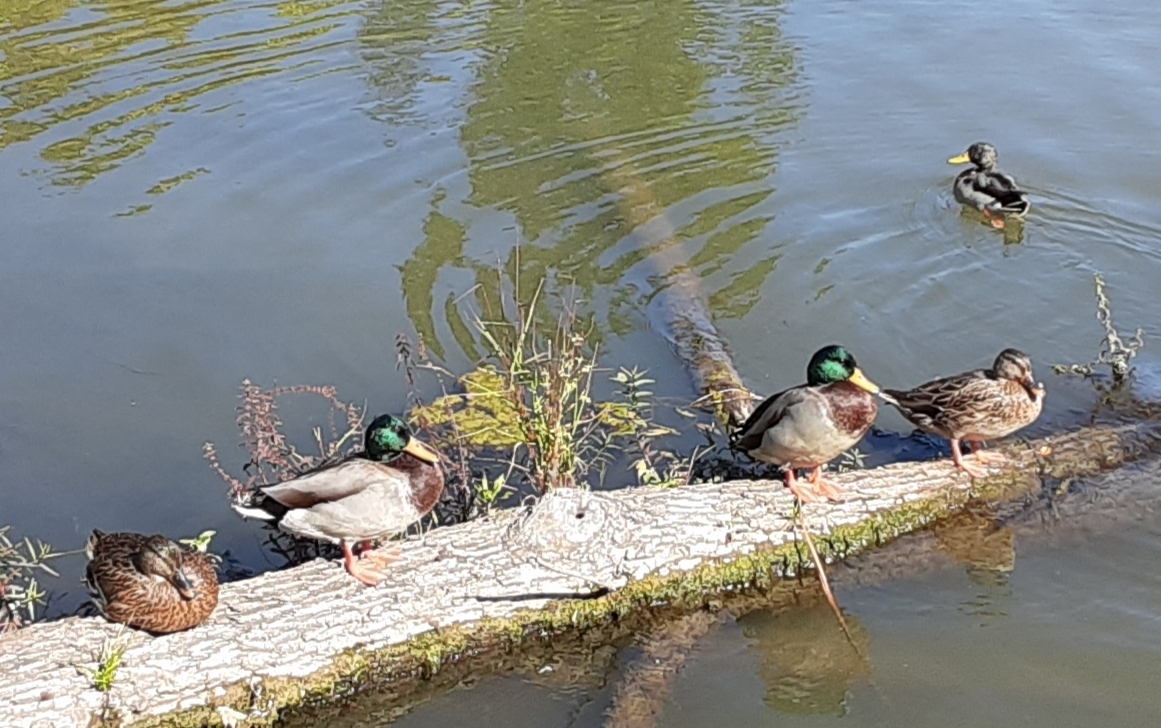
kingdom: Animalia
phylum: Chordata
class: Aves
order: Anseriformes
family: Anatidae
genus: Anas
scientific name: Anas platyrhynchos
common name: Mallard
